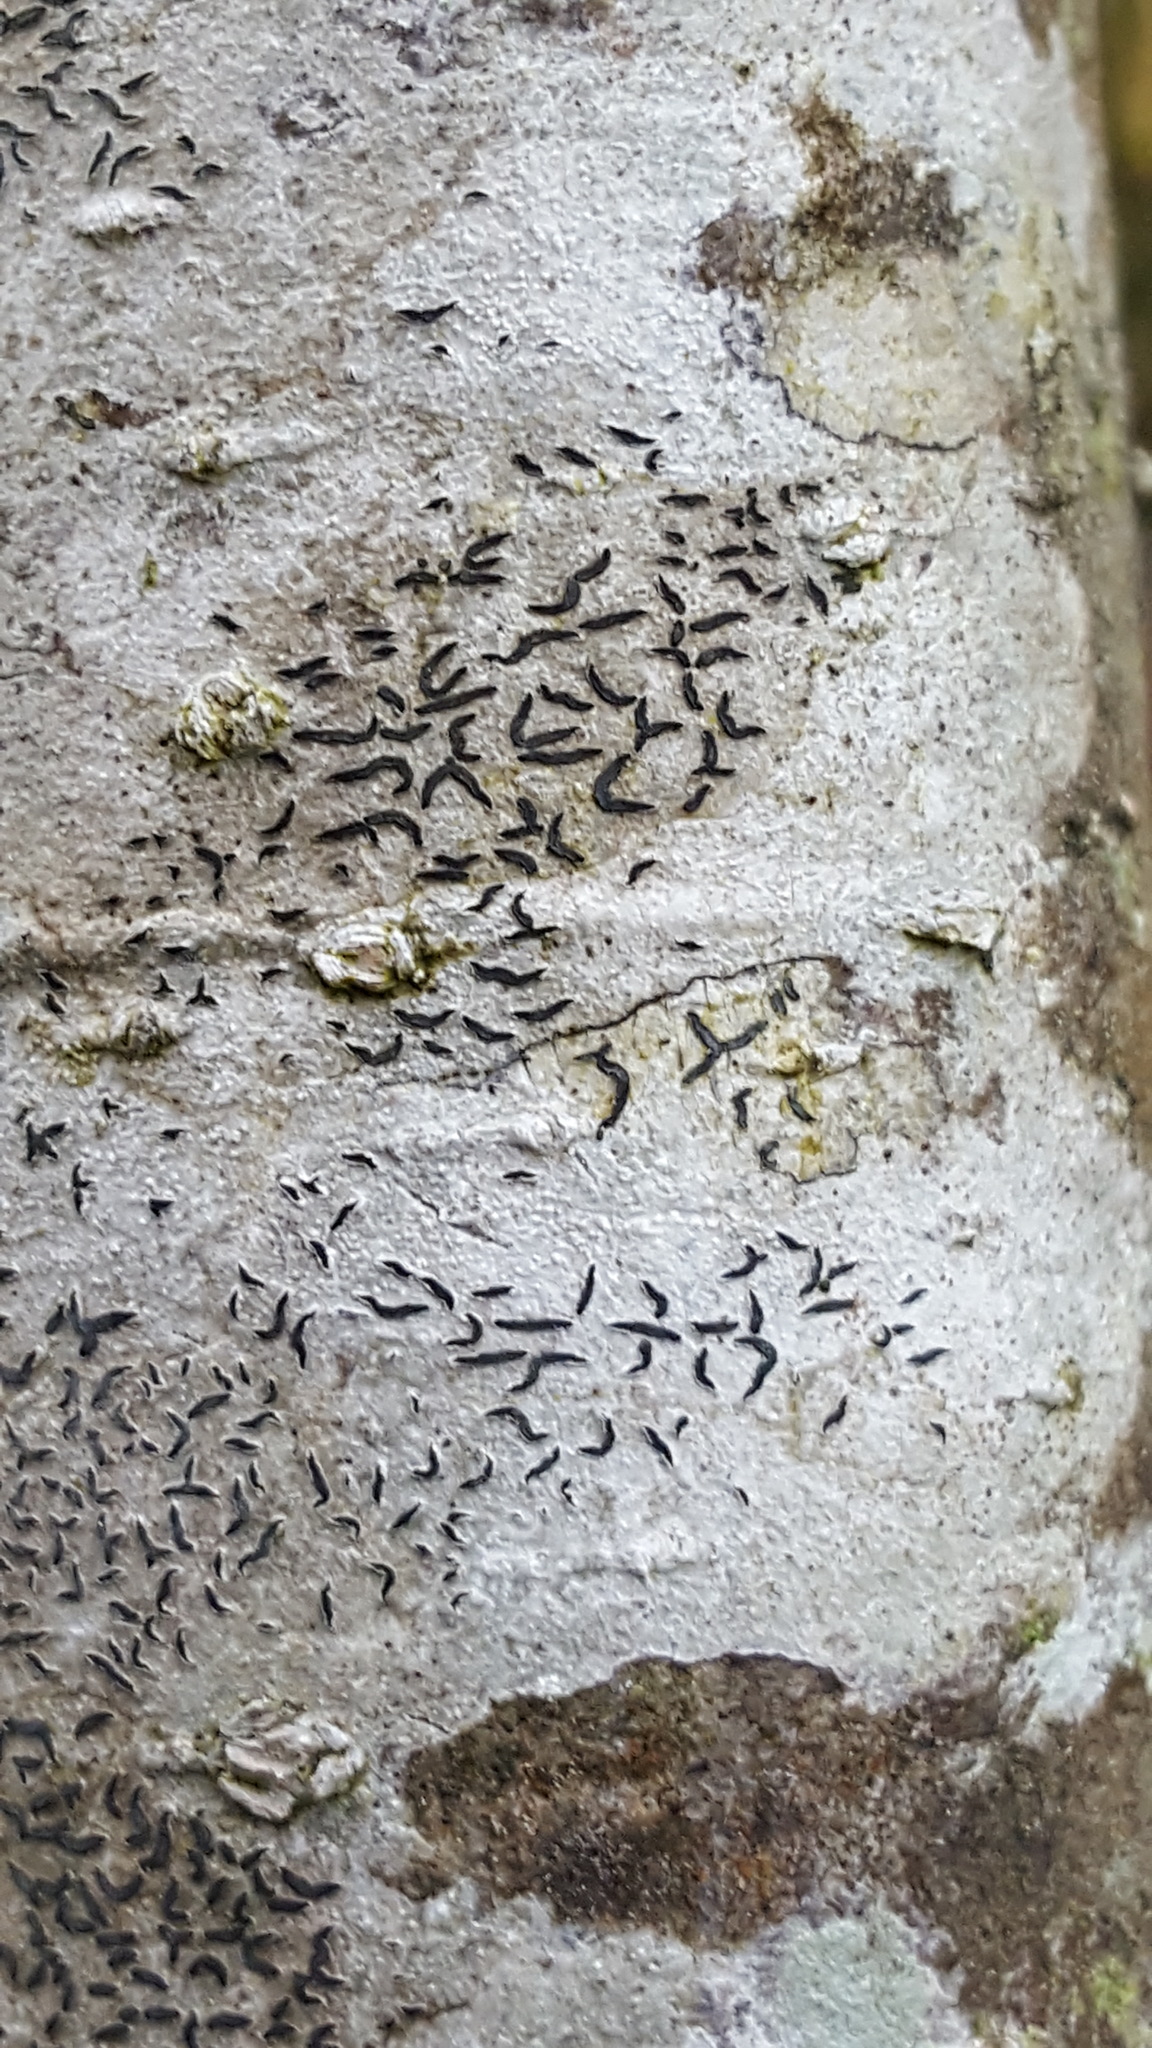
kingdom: Fungi
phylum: Ascomycota
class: Lecanoromycetes
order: Ostropales
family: Graphidaceae
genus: Graphis
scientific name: Graphis scripta
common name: Script lichen
